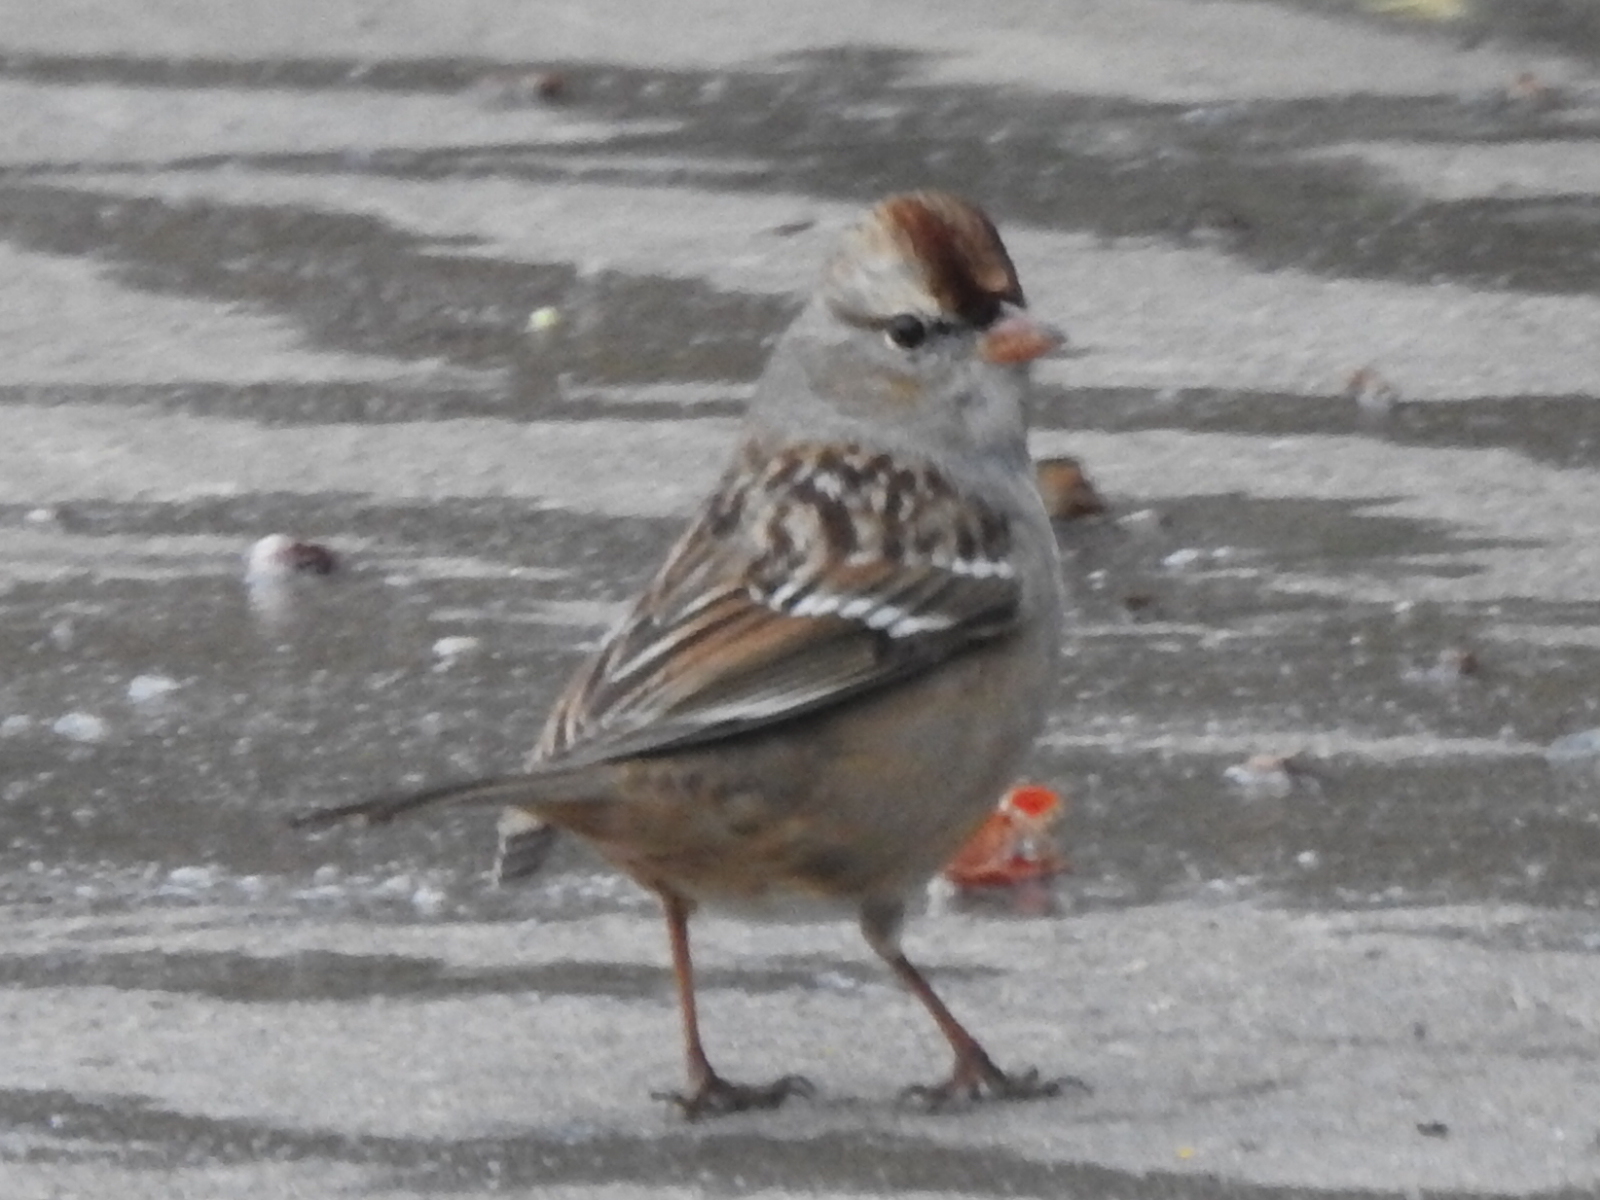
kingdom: Animalia
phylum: Chordata
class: Aves
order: Passeriformes
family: Passerellidae
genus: Zonotrichia
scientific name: Zonotrichia leucophrys
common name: White-crowned sparrow
